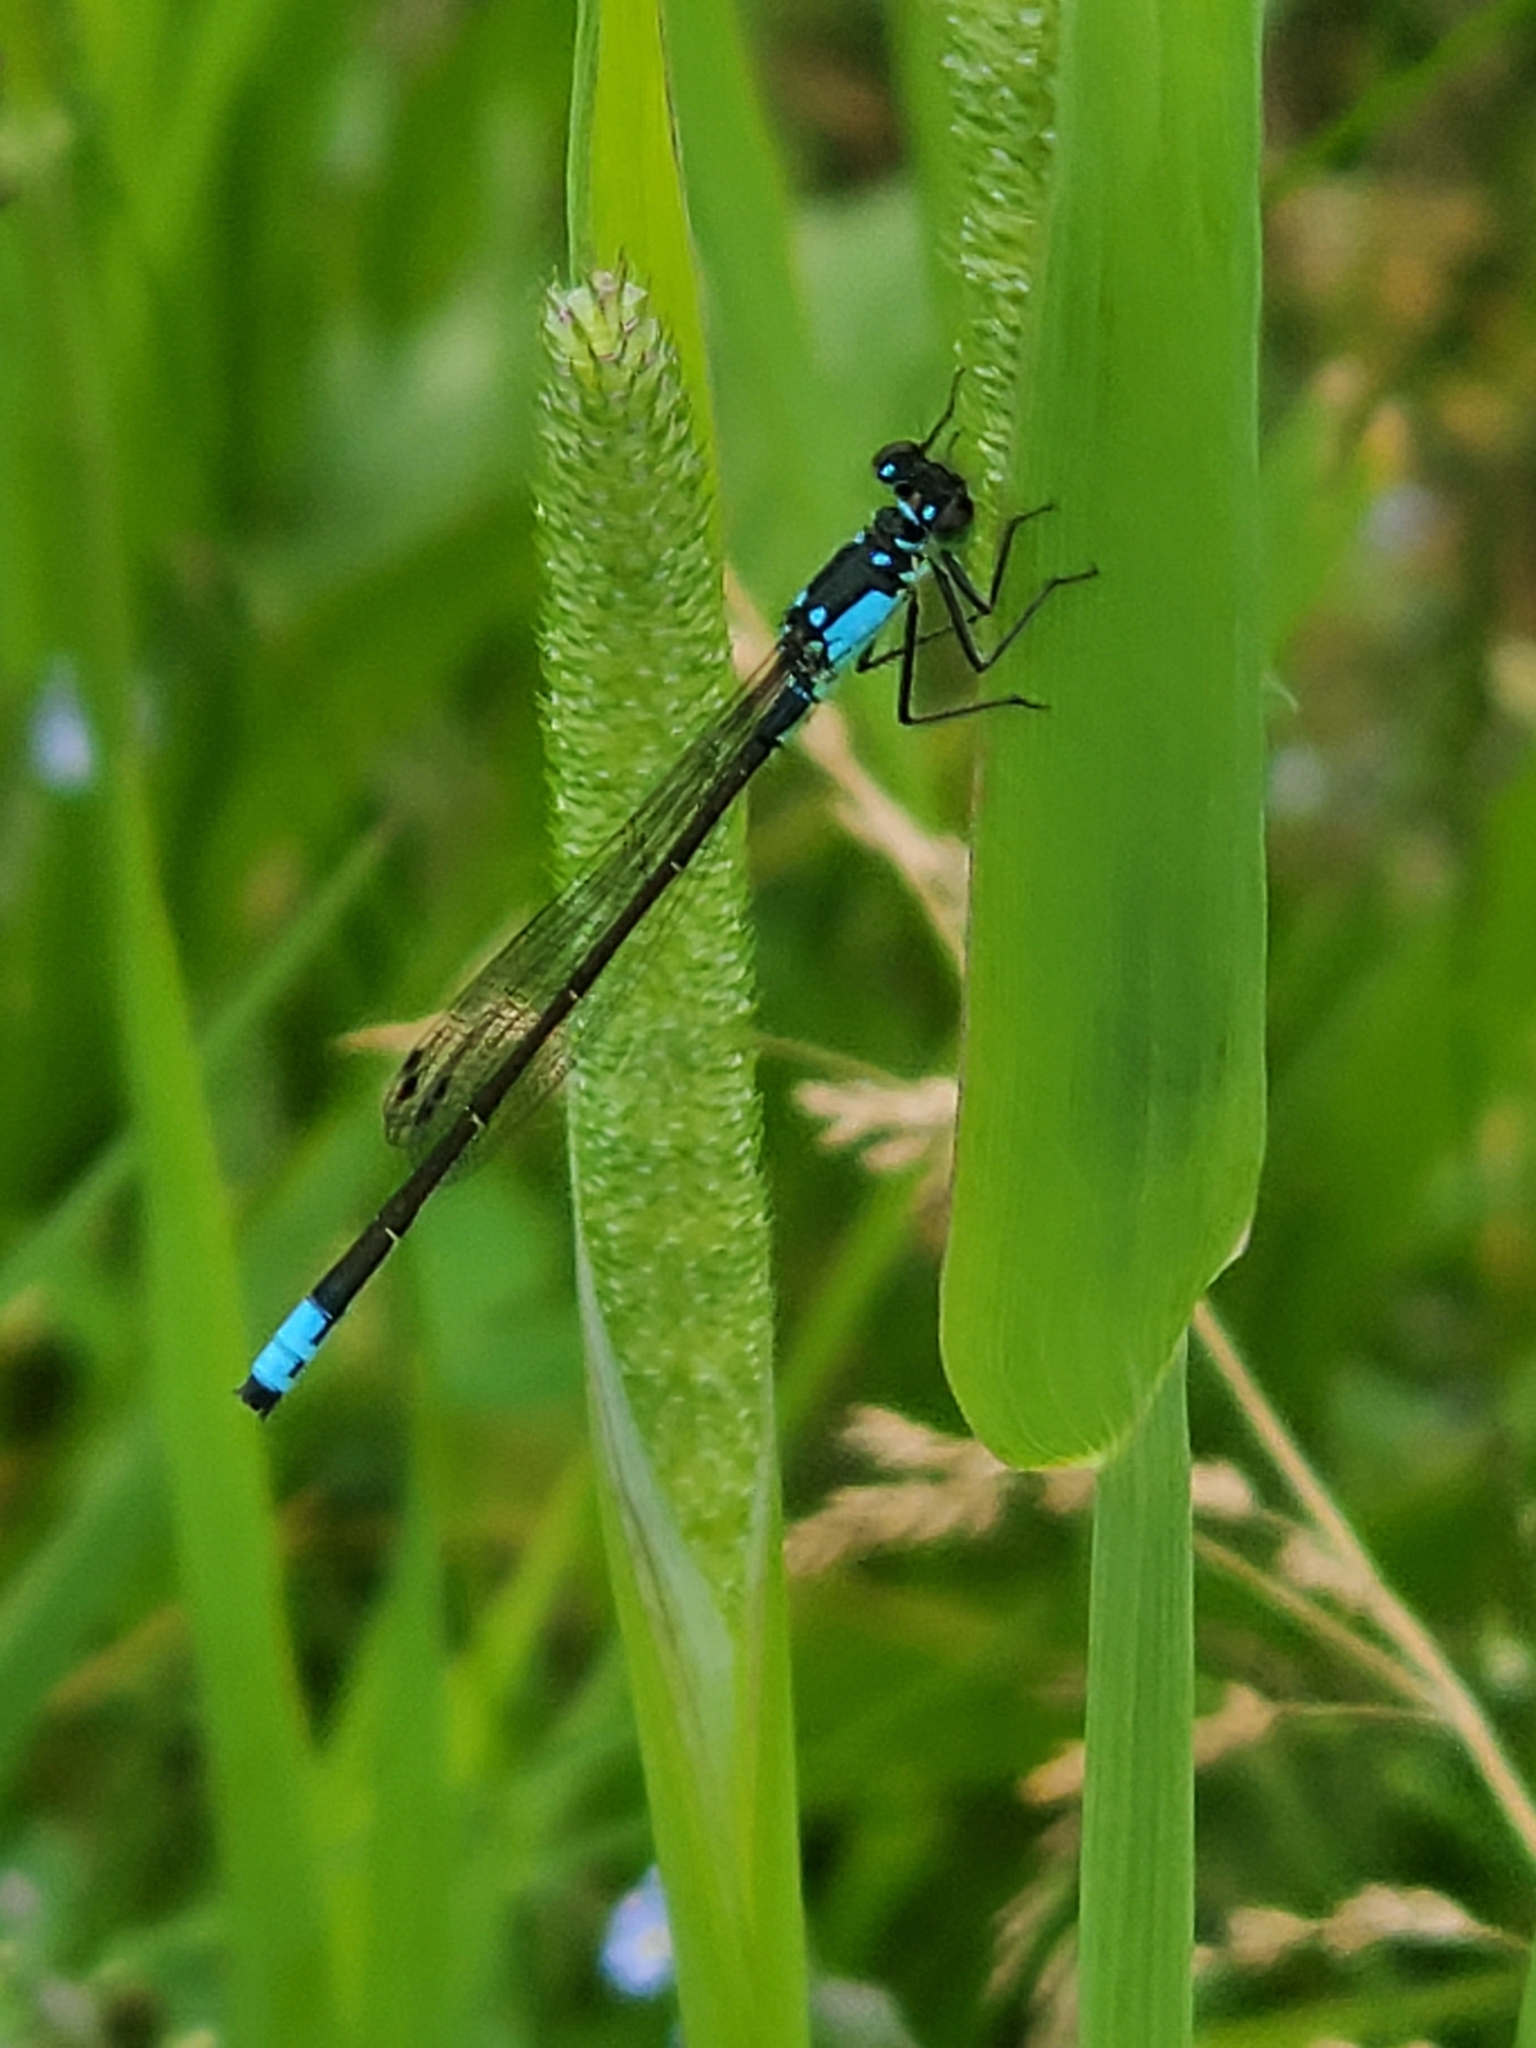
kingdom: Animalia
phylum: Arthropoda
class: Insecta
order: Odonata
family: Coenagrionidae
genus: Ischnura
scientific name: Ischnura cervula
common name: Pacific forktail
